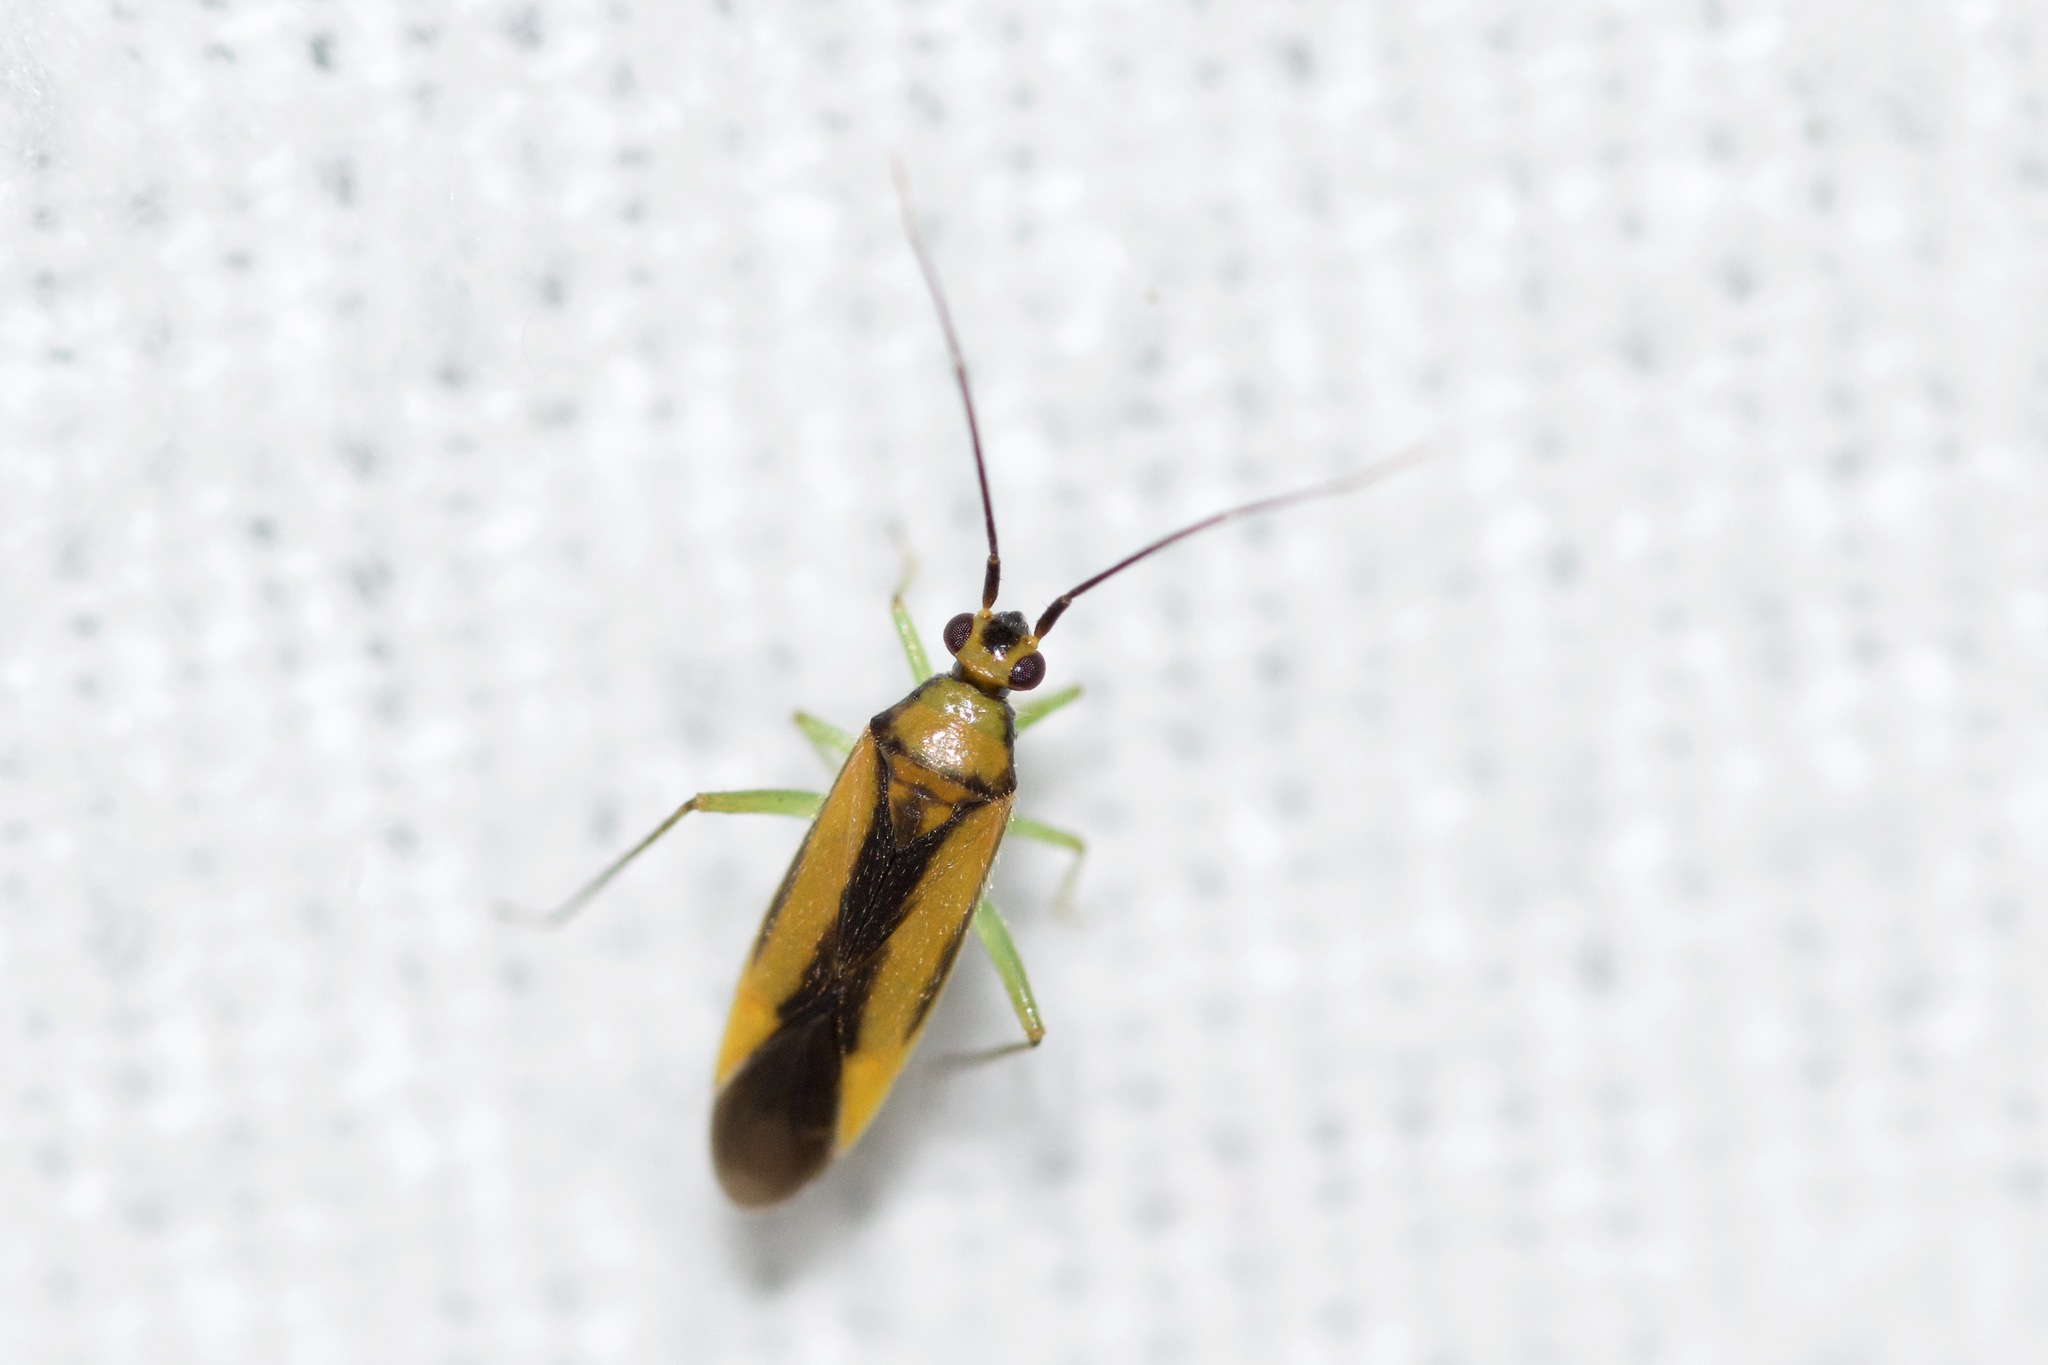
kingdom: Animalia
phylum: Arthropoda
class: Insecta
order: Hemiptera
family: Miridae
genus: Orthotylus
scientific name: Orthotylus submarginatus
